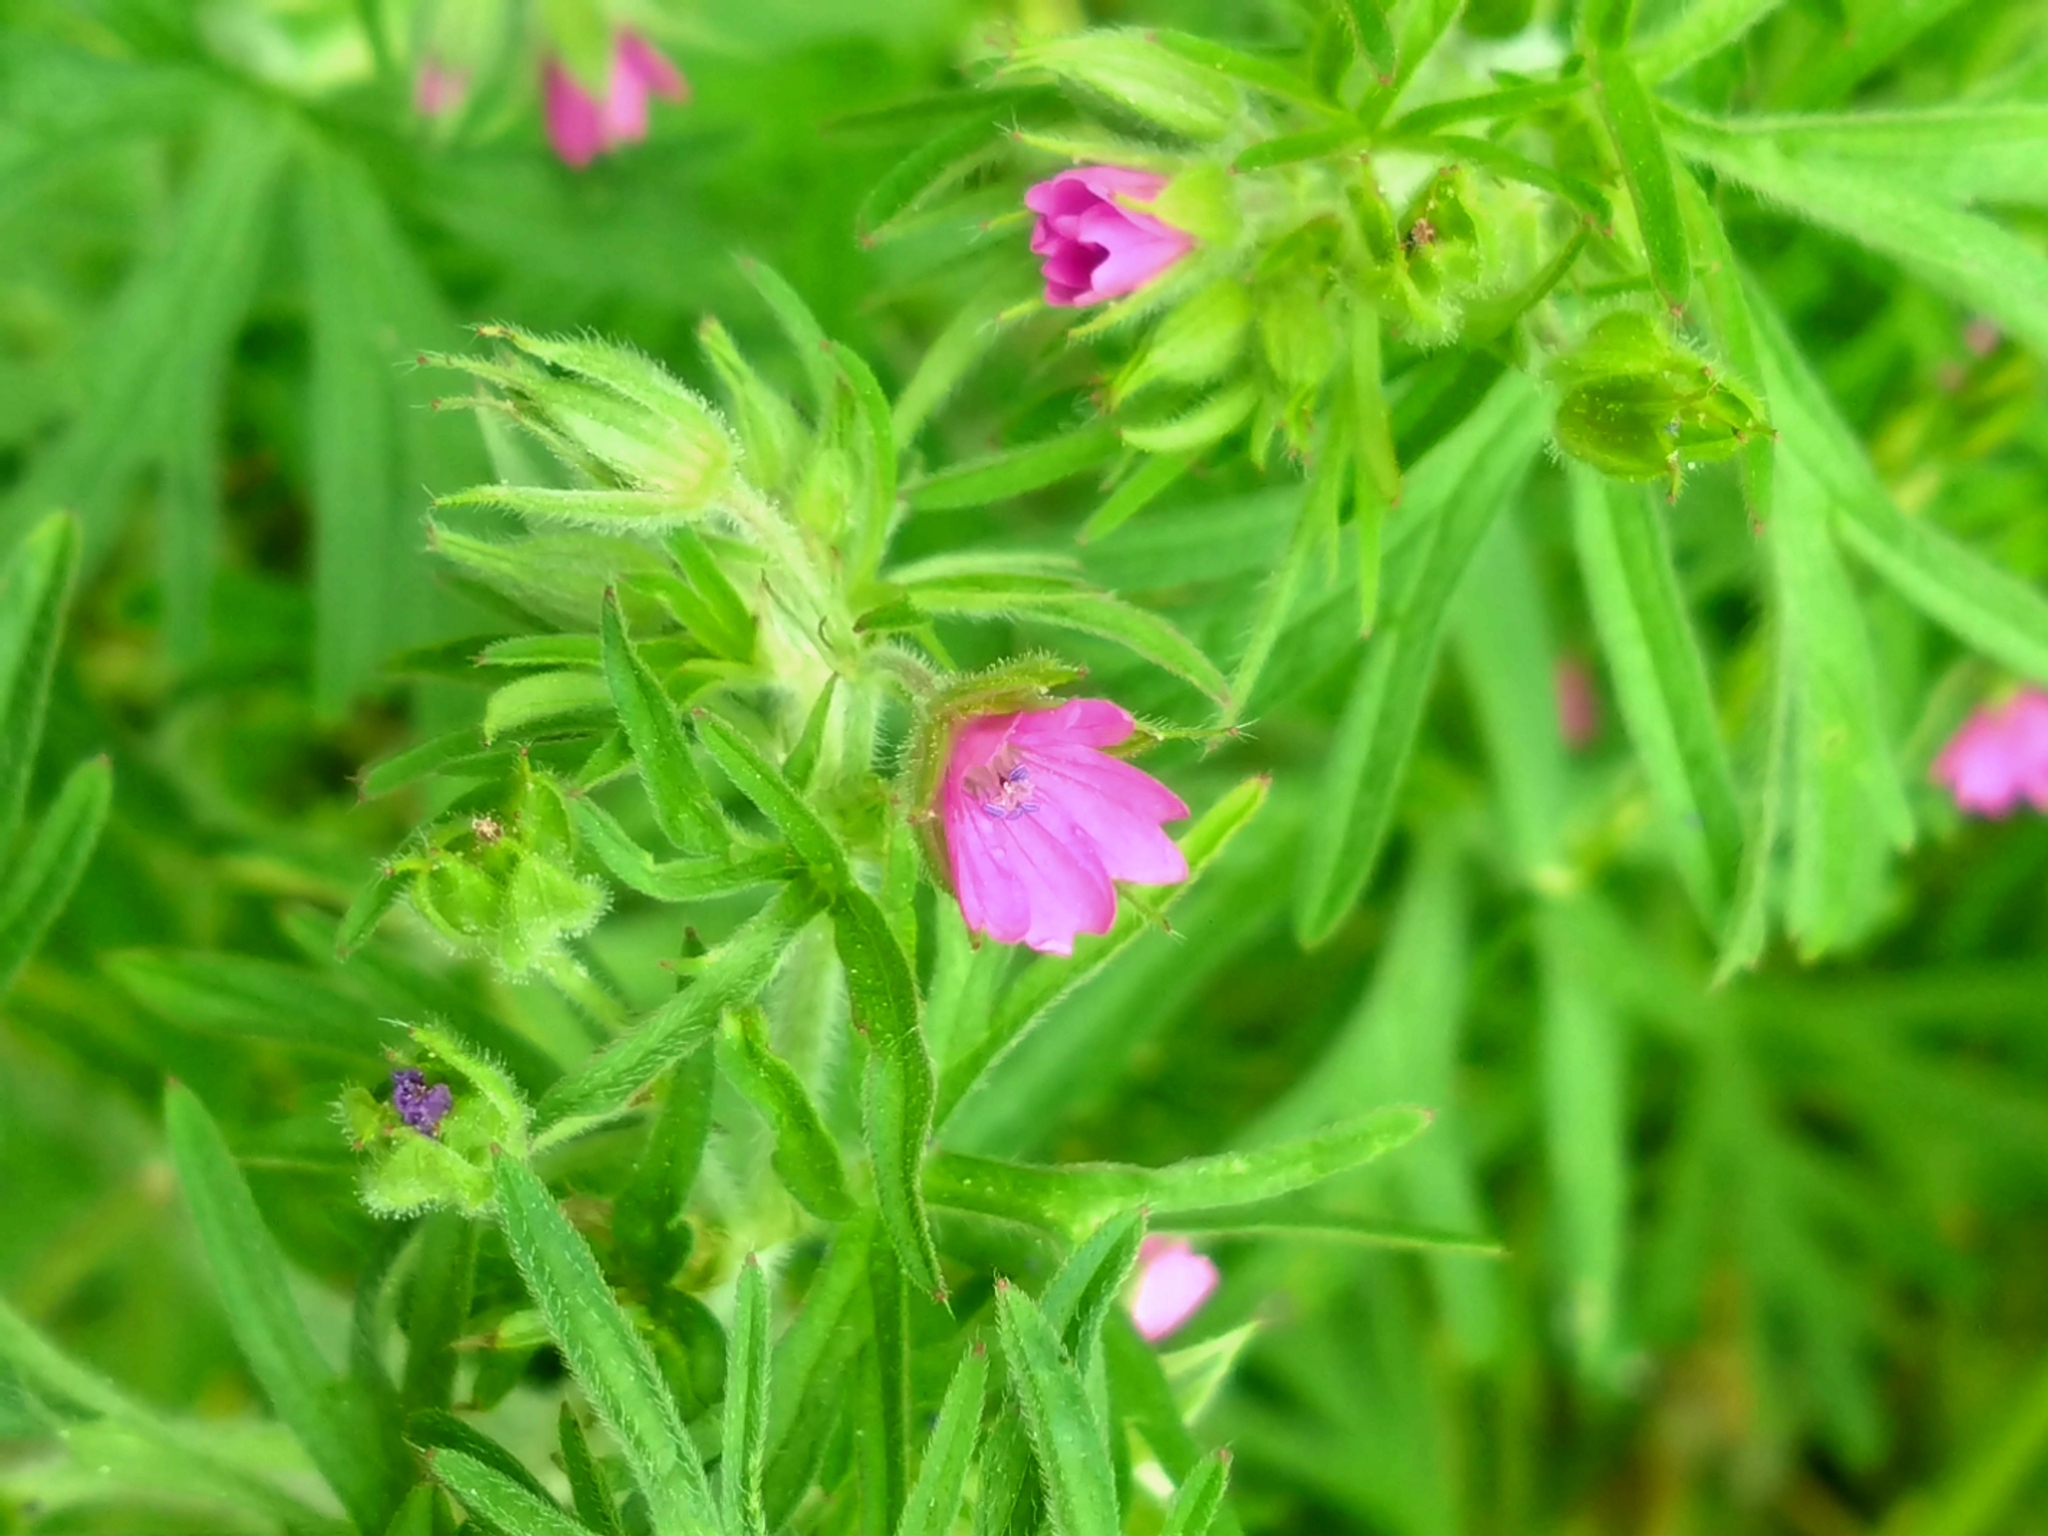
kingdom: Plantae
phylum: Tracheophyta
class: Magnoliopsida
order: Geraniales
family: Geraniaceae
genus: Geranium
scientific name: Geranium dissectum
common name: Cut-leaved crane's-bill
